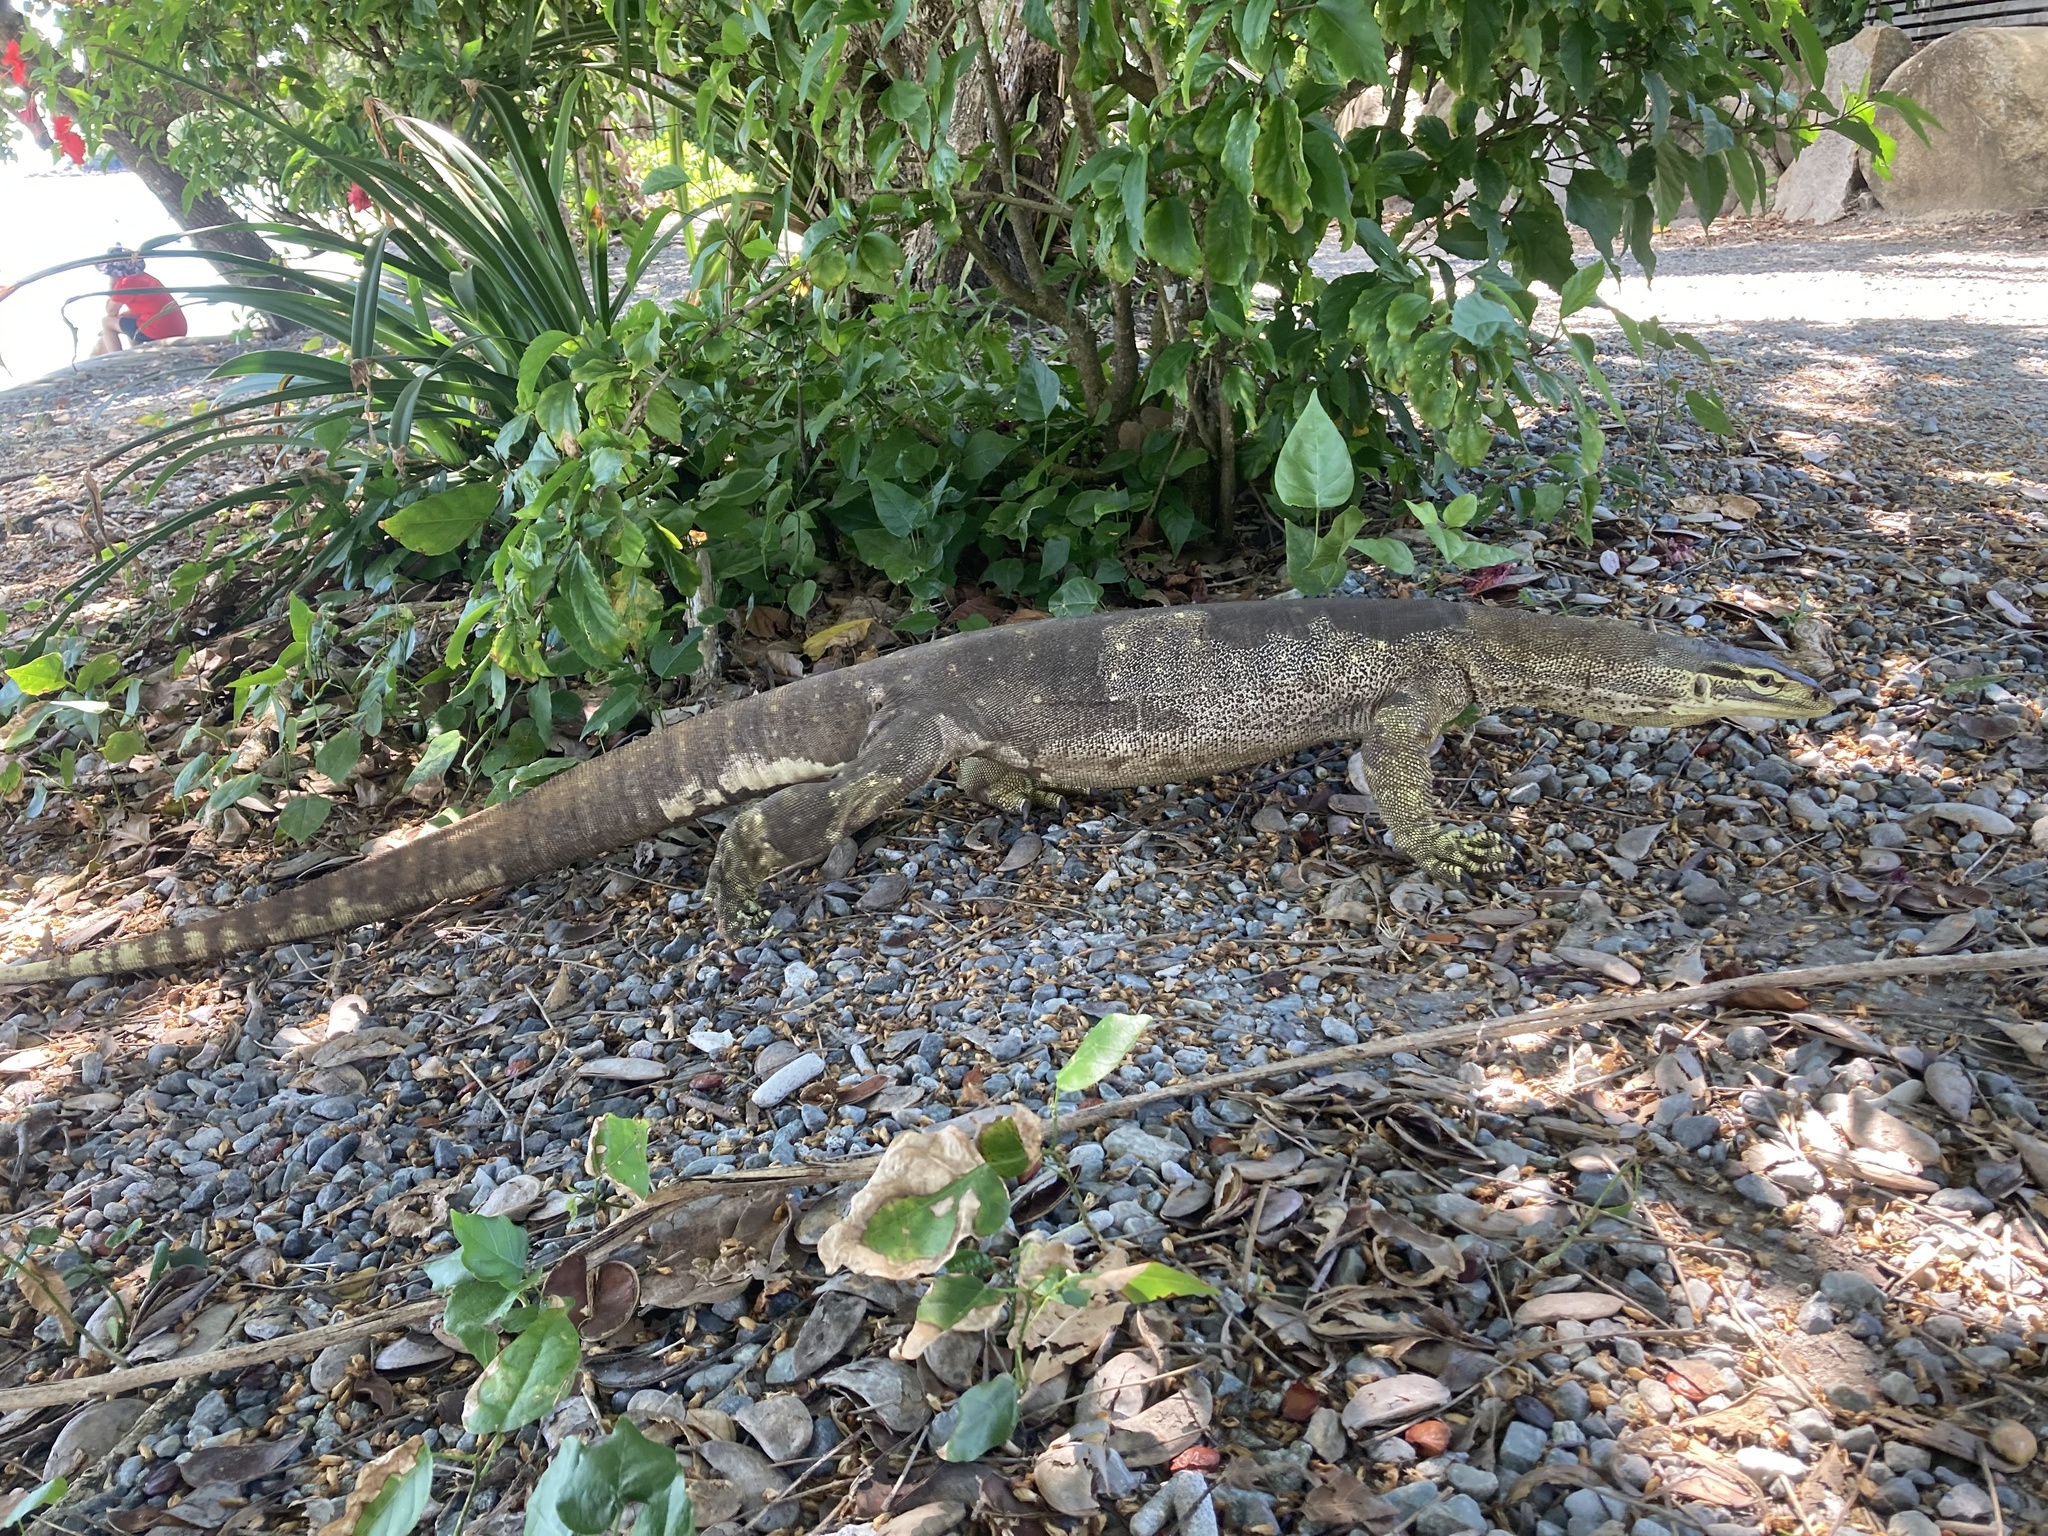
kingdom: Animalia
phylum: Chordata
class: Squamata
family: Varanidae
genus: Varanus
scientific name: Varanus panoptes
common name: Yellow-spotted monitor
